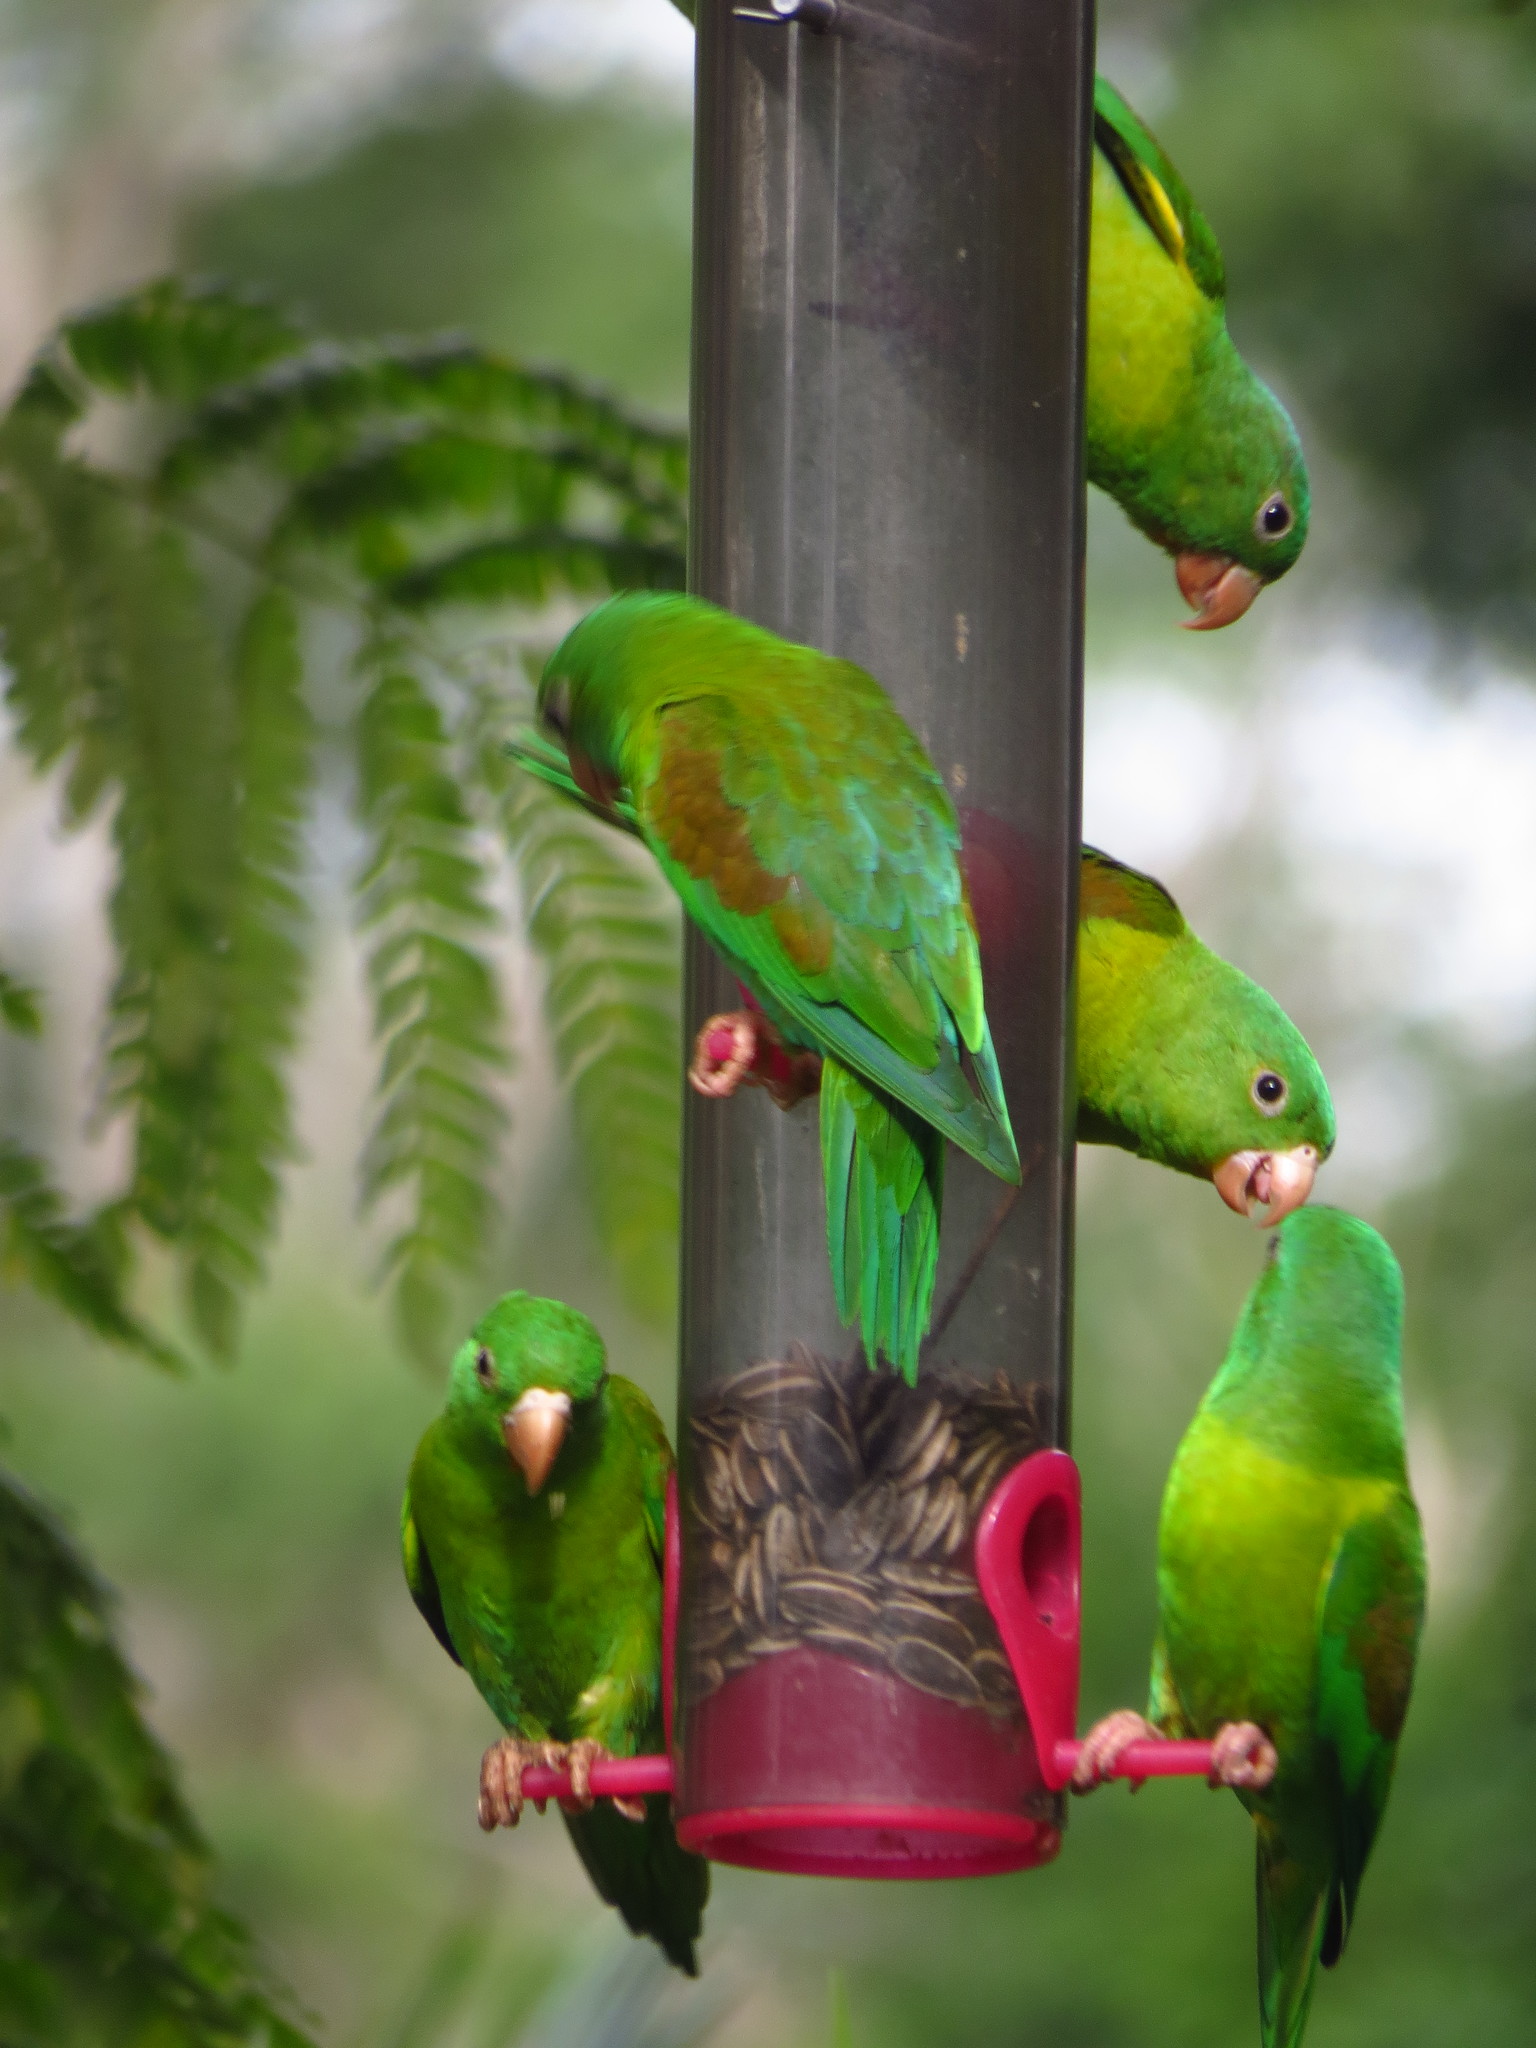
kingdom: Animalia
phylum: Chordata
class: Aves
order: Psittaciformes
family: Psittacidae
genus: Brotogeris
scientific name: Brotogeris jugularis
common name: Orange-chinned parakeet
